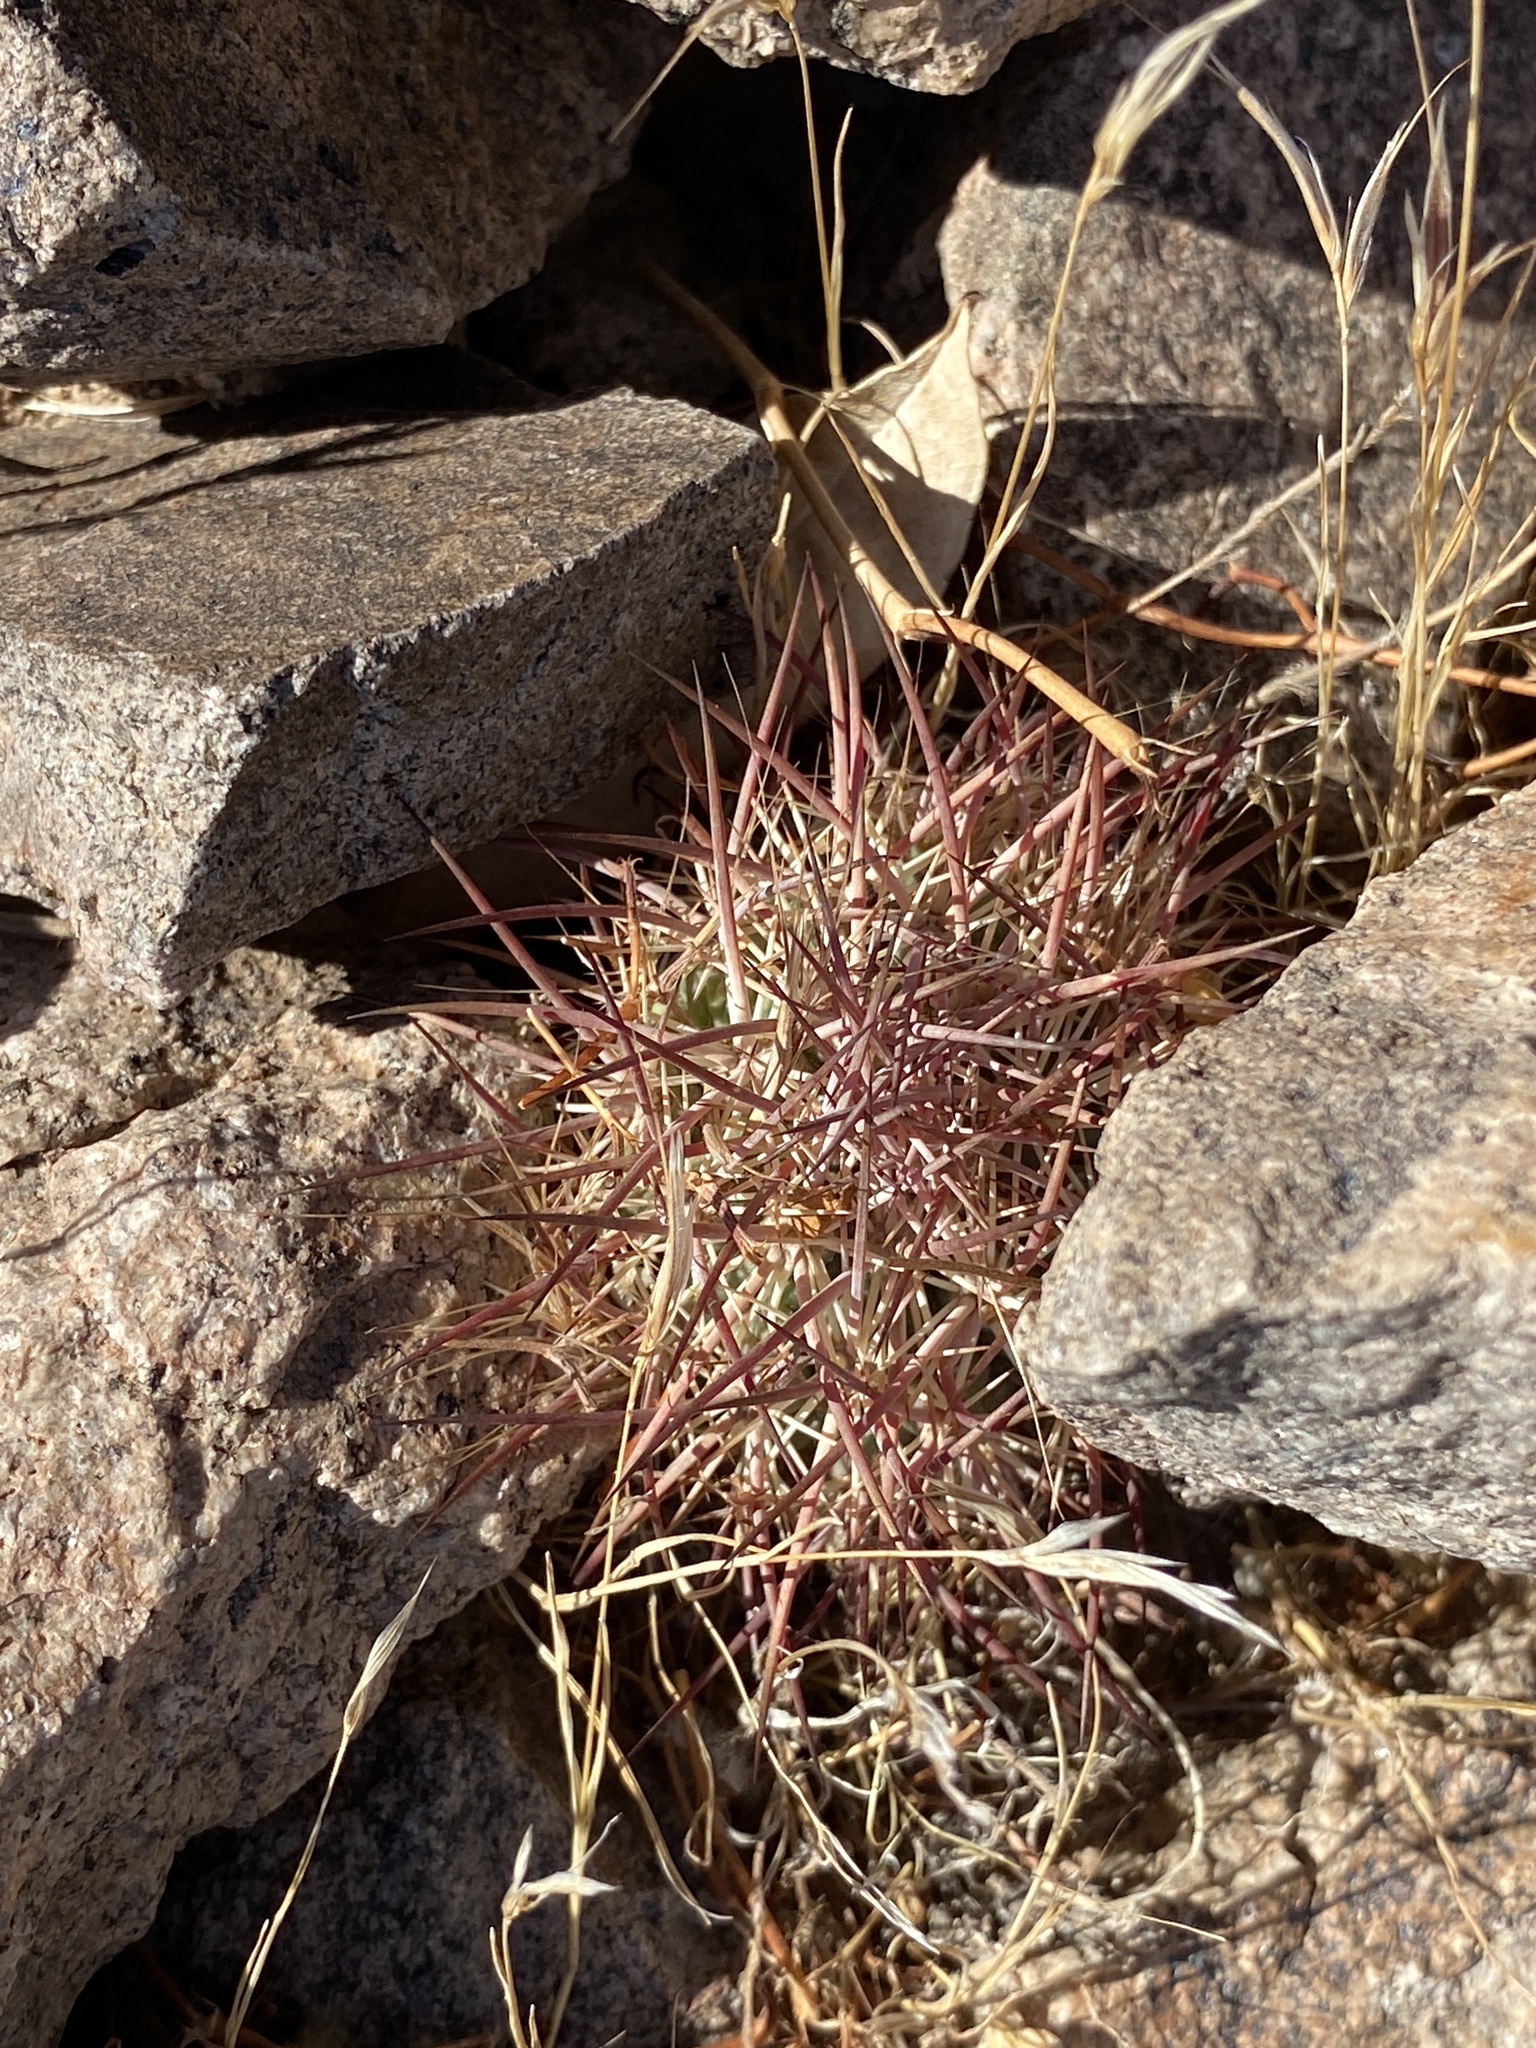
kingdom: Plantae
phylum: Tracheophyta
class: Magnoliopsida
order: Caryophyllales
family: Cactaceae
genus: Sclerocactus
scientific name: Sclerocactus johnsonii
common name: Eight-spine fishhook cactus
